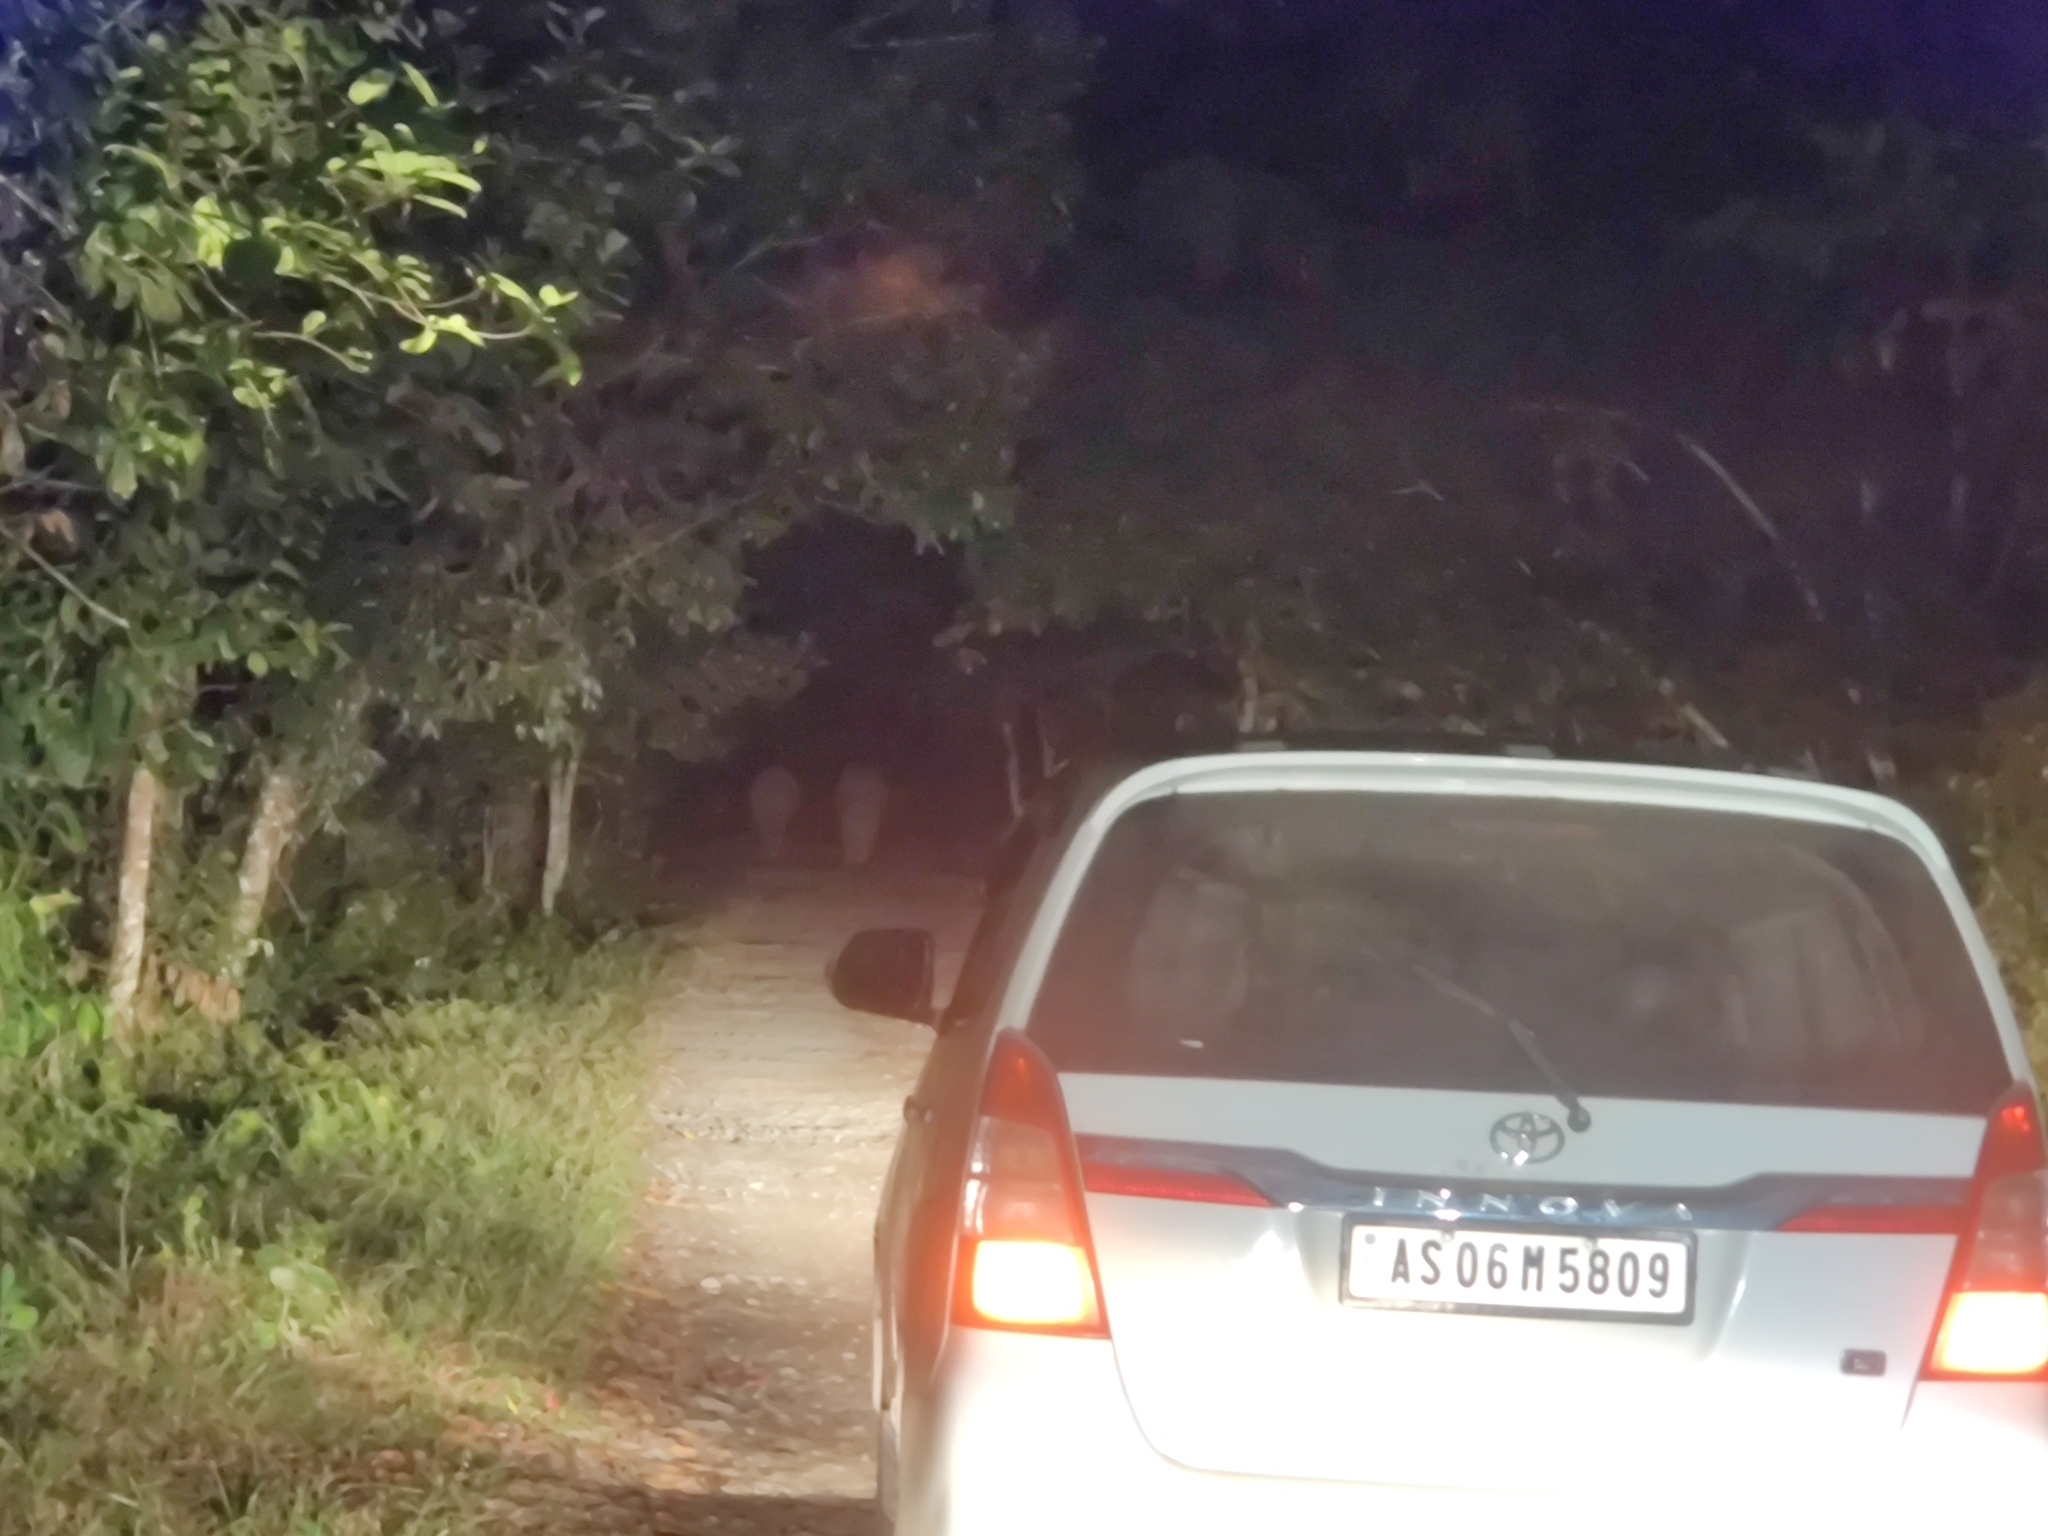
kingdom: Animalia
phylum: Chordata
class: Mammalia
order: Proboscidea
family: Elephantidae
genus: Elephas
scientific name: Elephas maximus
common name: Asian elephant
